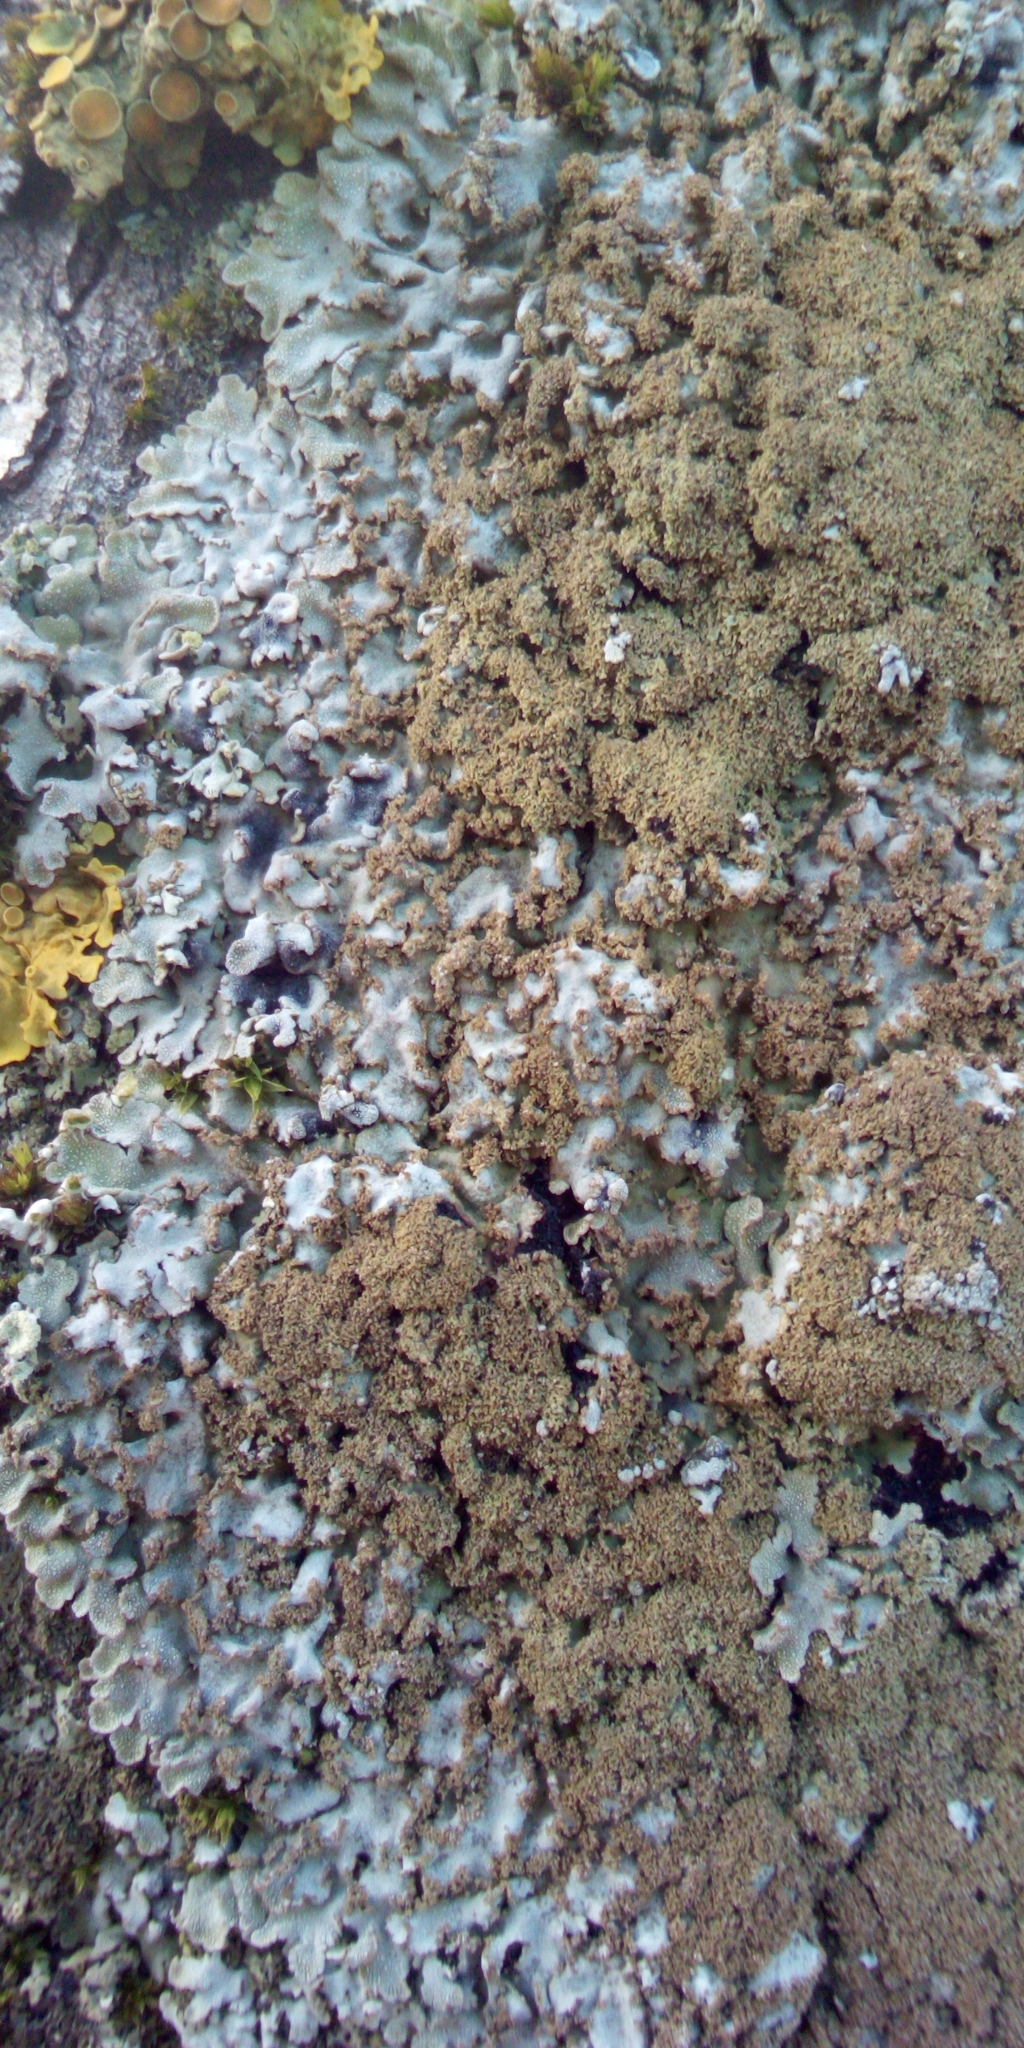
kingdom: Fungi
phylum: Ascomycota
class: Lecanoromycetes
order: Caliciales
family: Physciaceae
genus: Physconia
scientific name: Physconia
